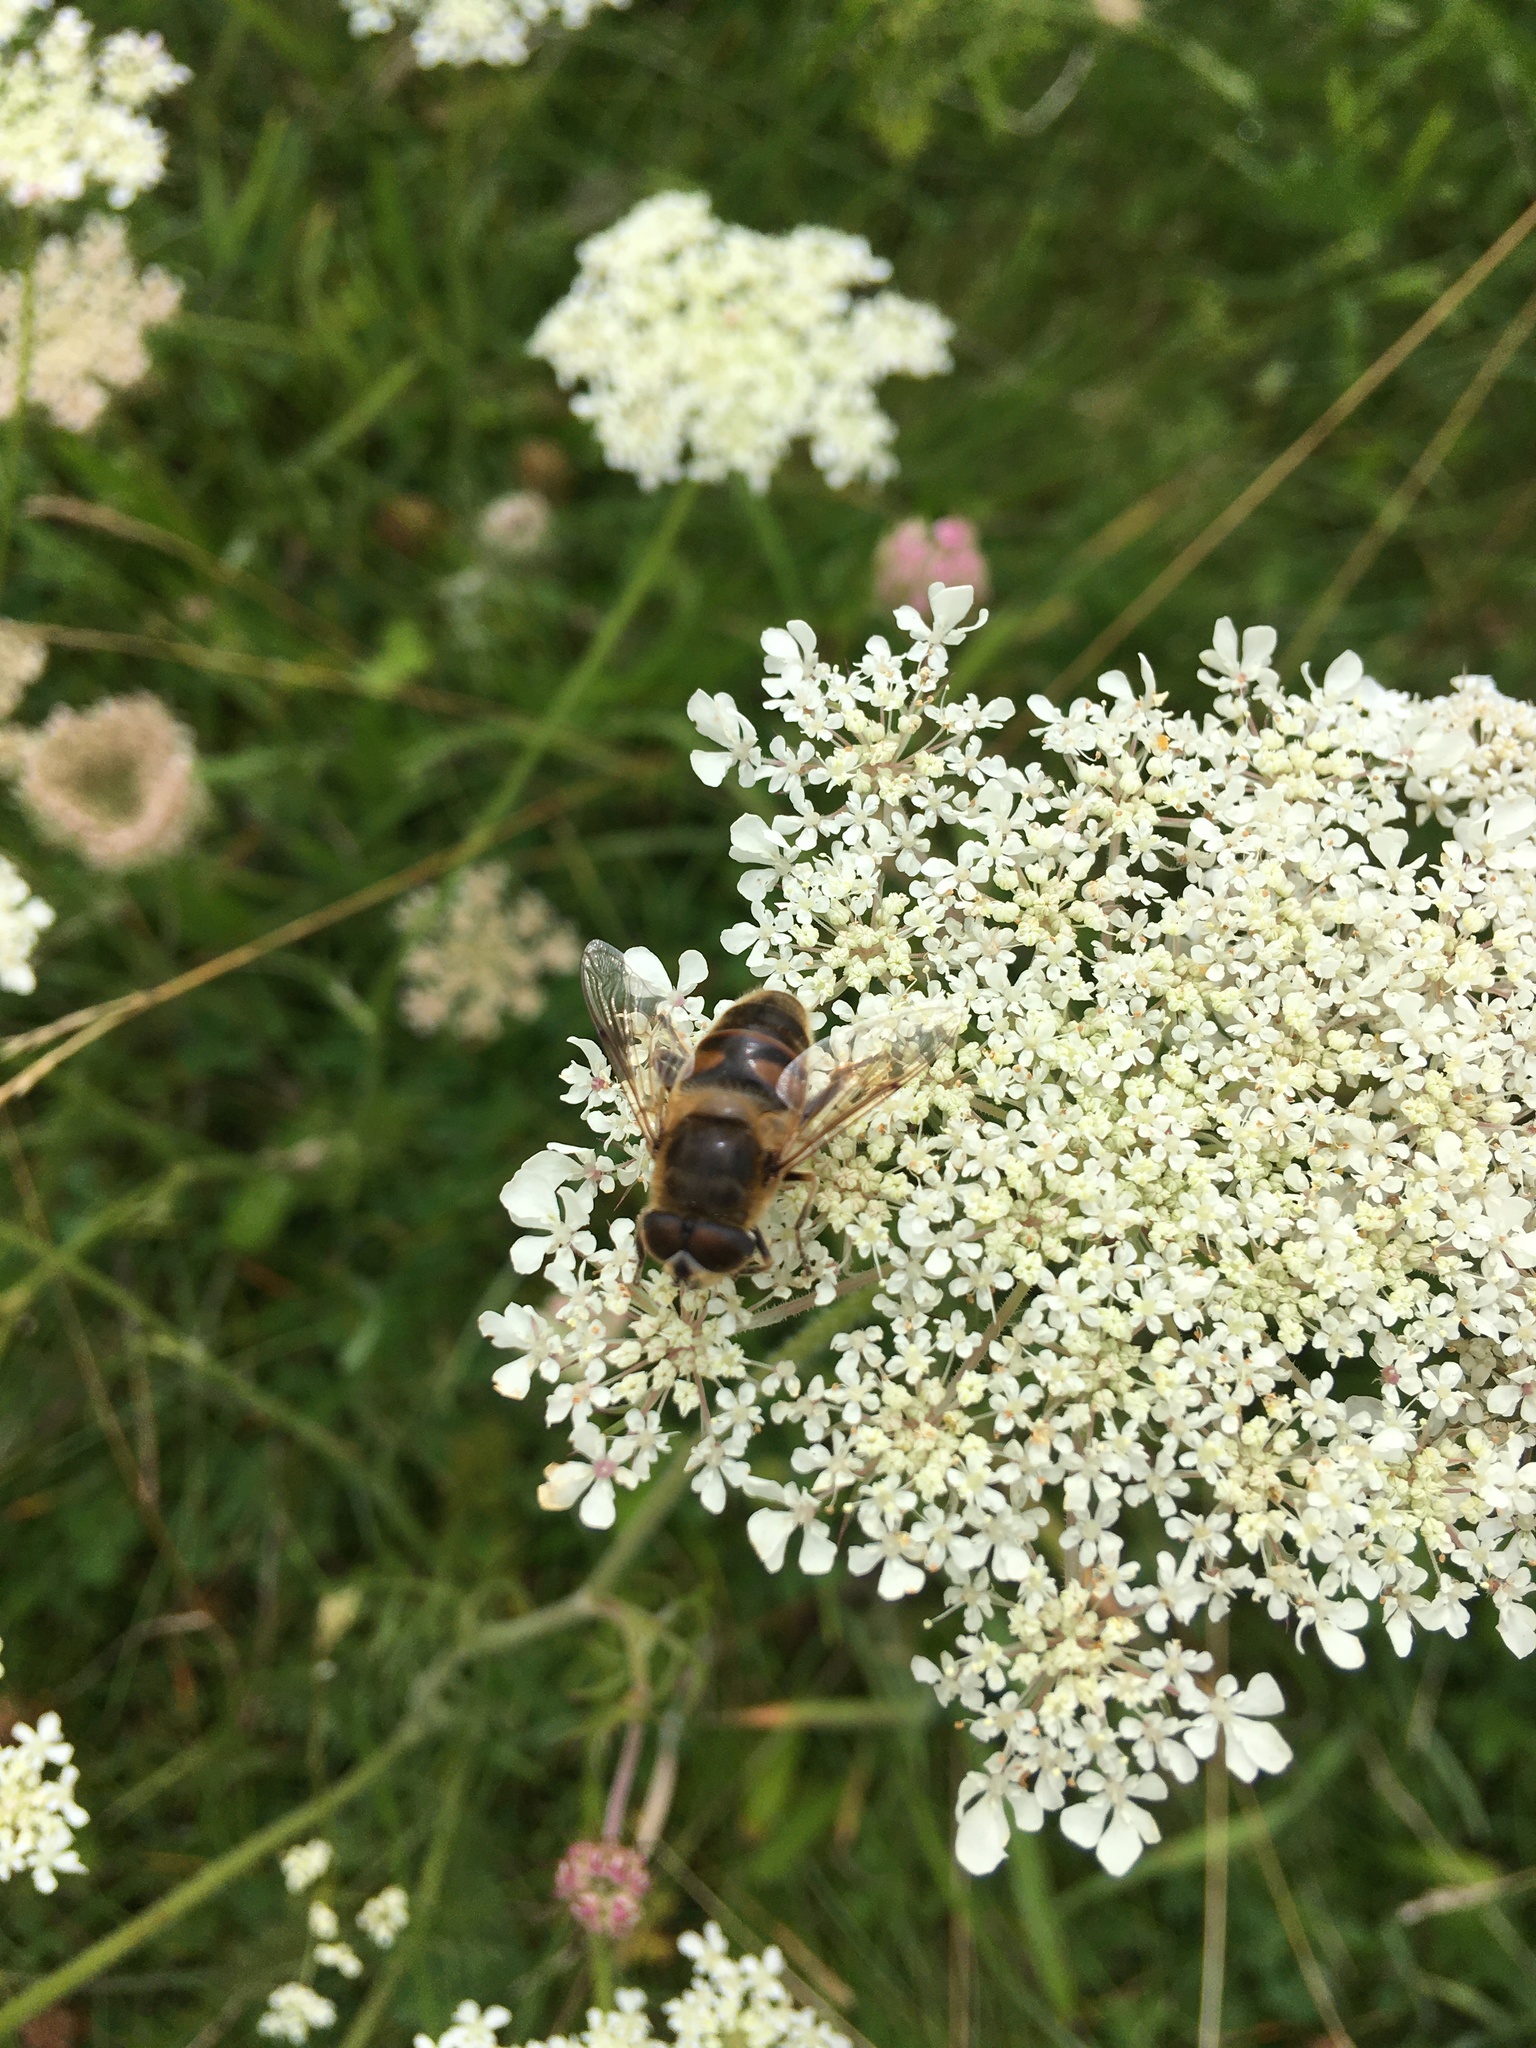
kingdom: Animalia
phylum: Arthropoda
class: Insecta
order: Diptera
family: Syrphidae
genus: Eristalis
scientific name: Eristalis tenax
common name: Drone fly
